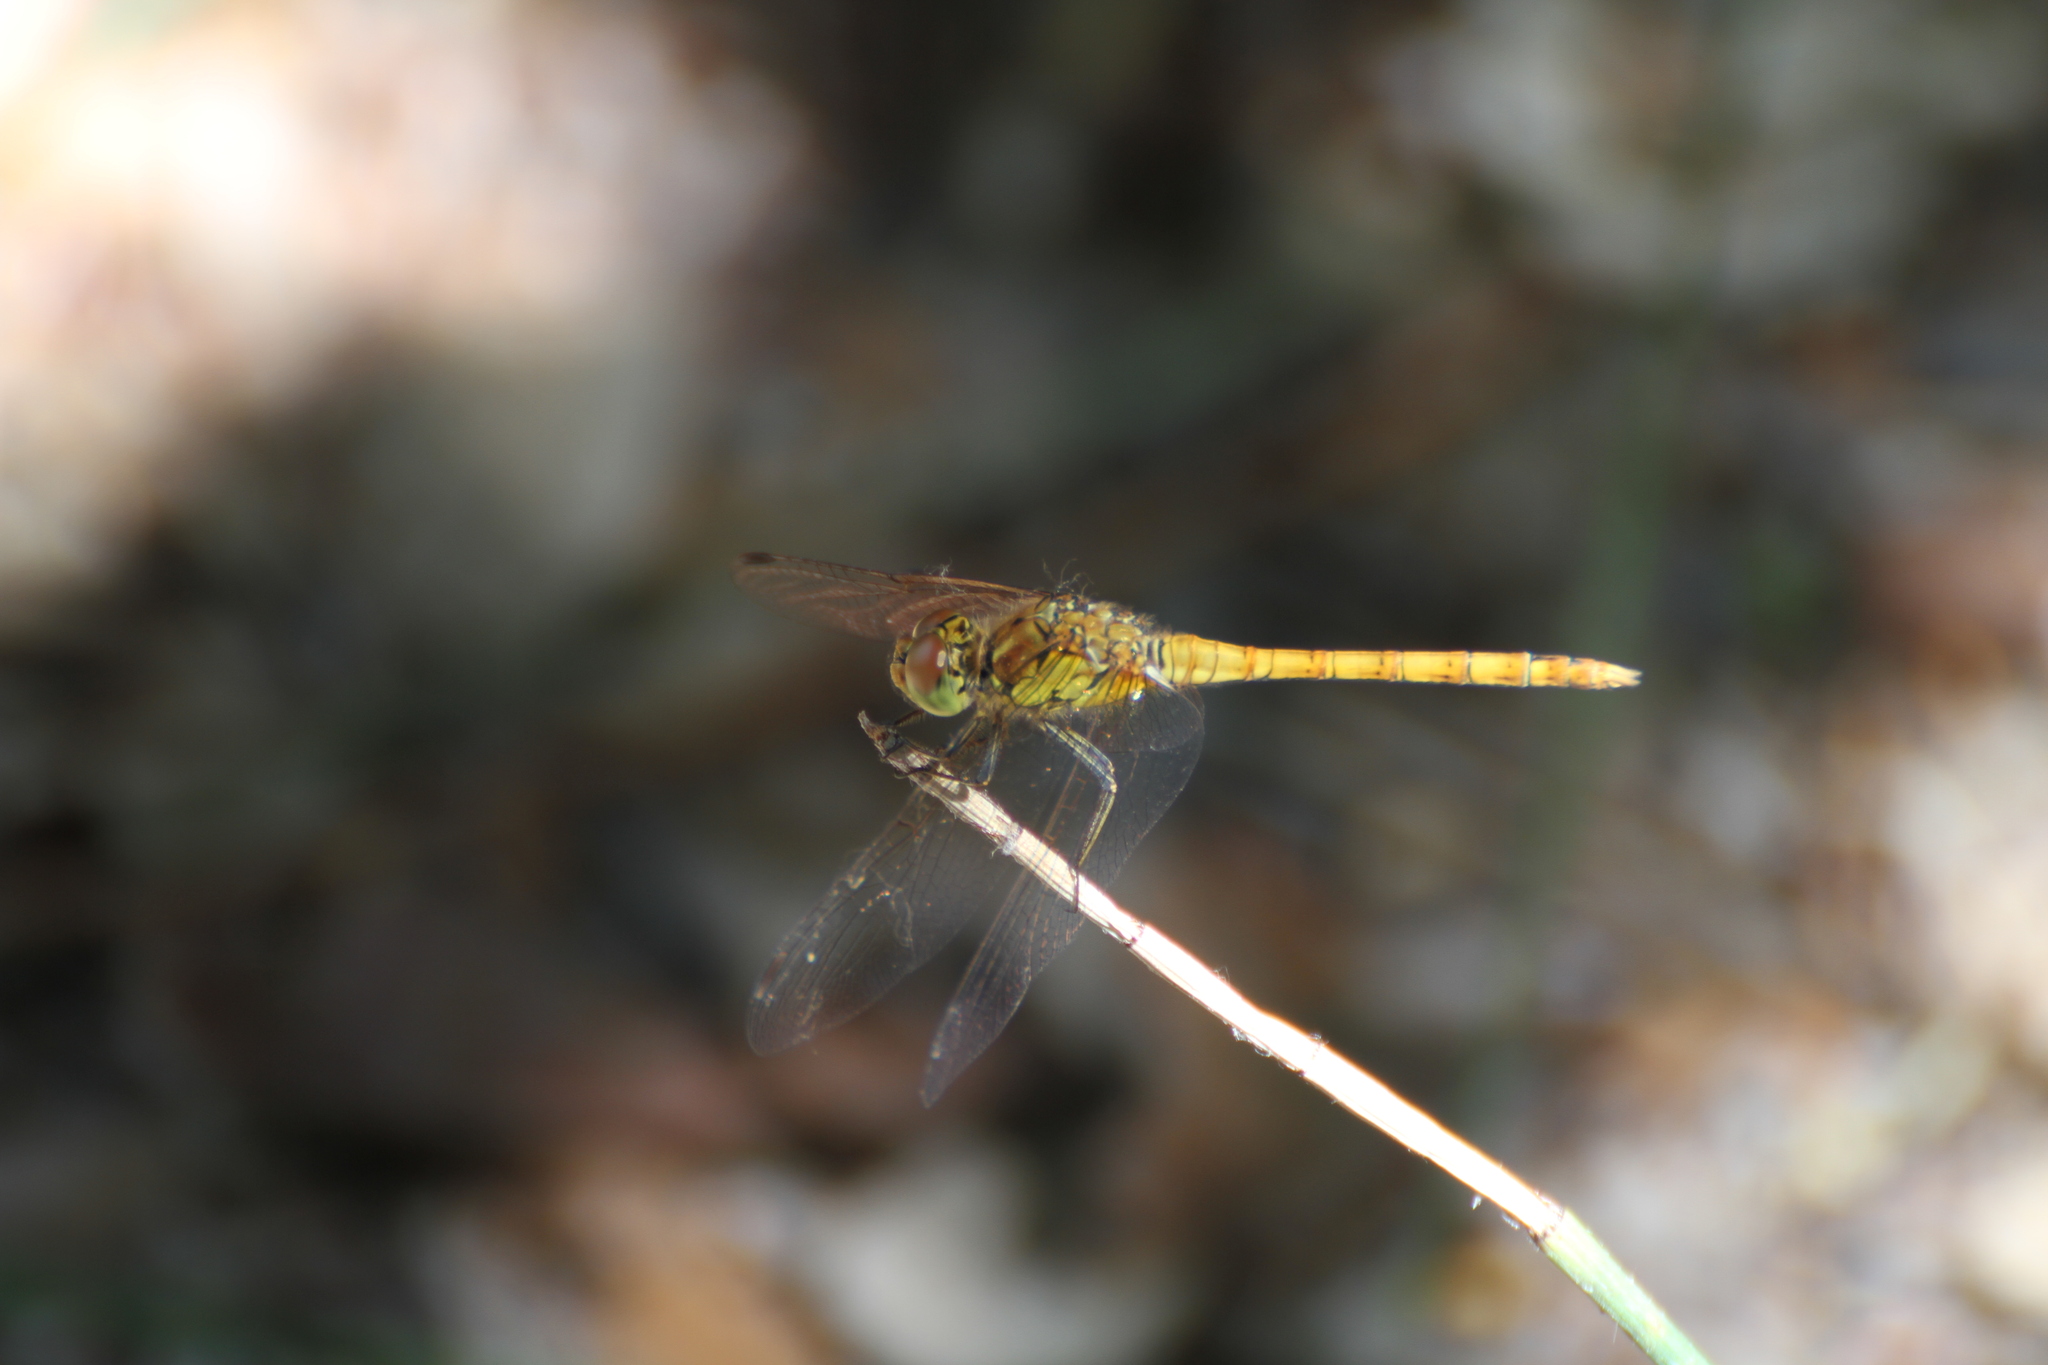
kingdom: Animalia
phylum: Arthropoda
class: Insecta
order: Odonata
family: Libellulidae
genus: Sympetrum
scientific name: Sympetrum striolatum
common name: Common darter
